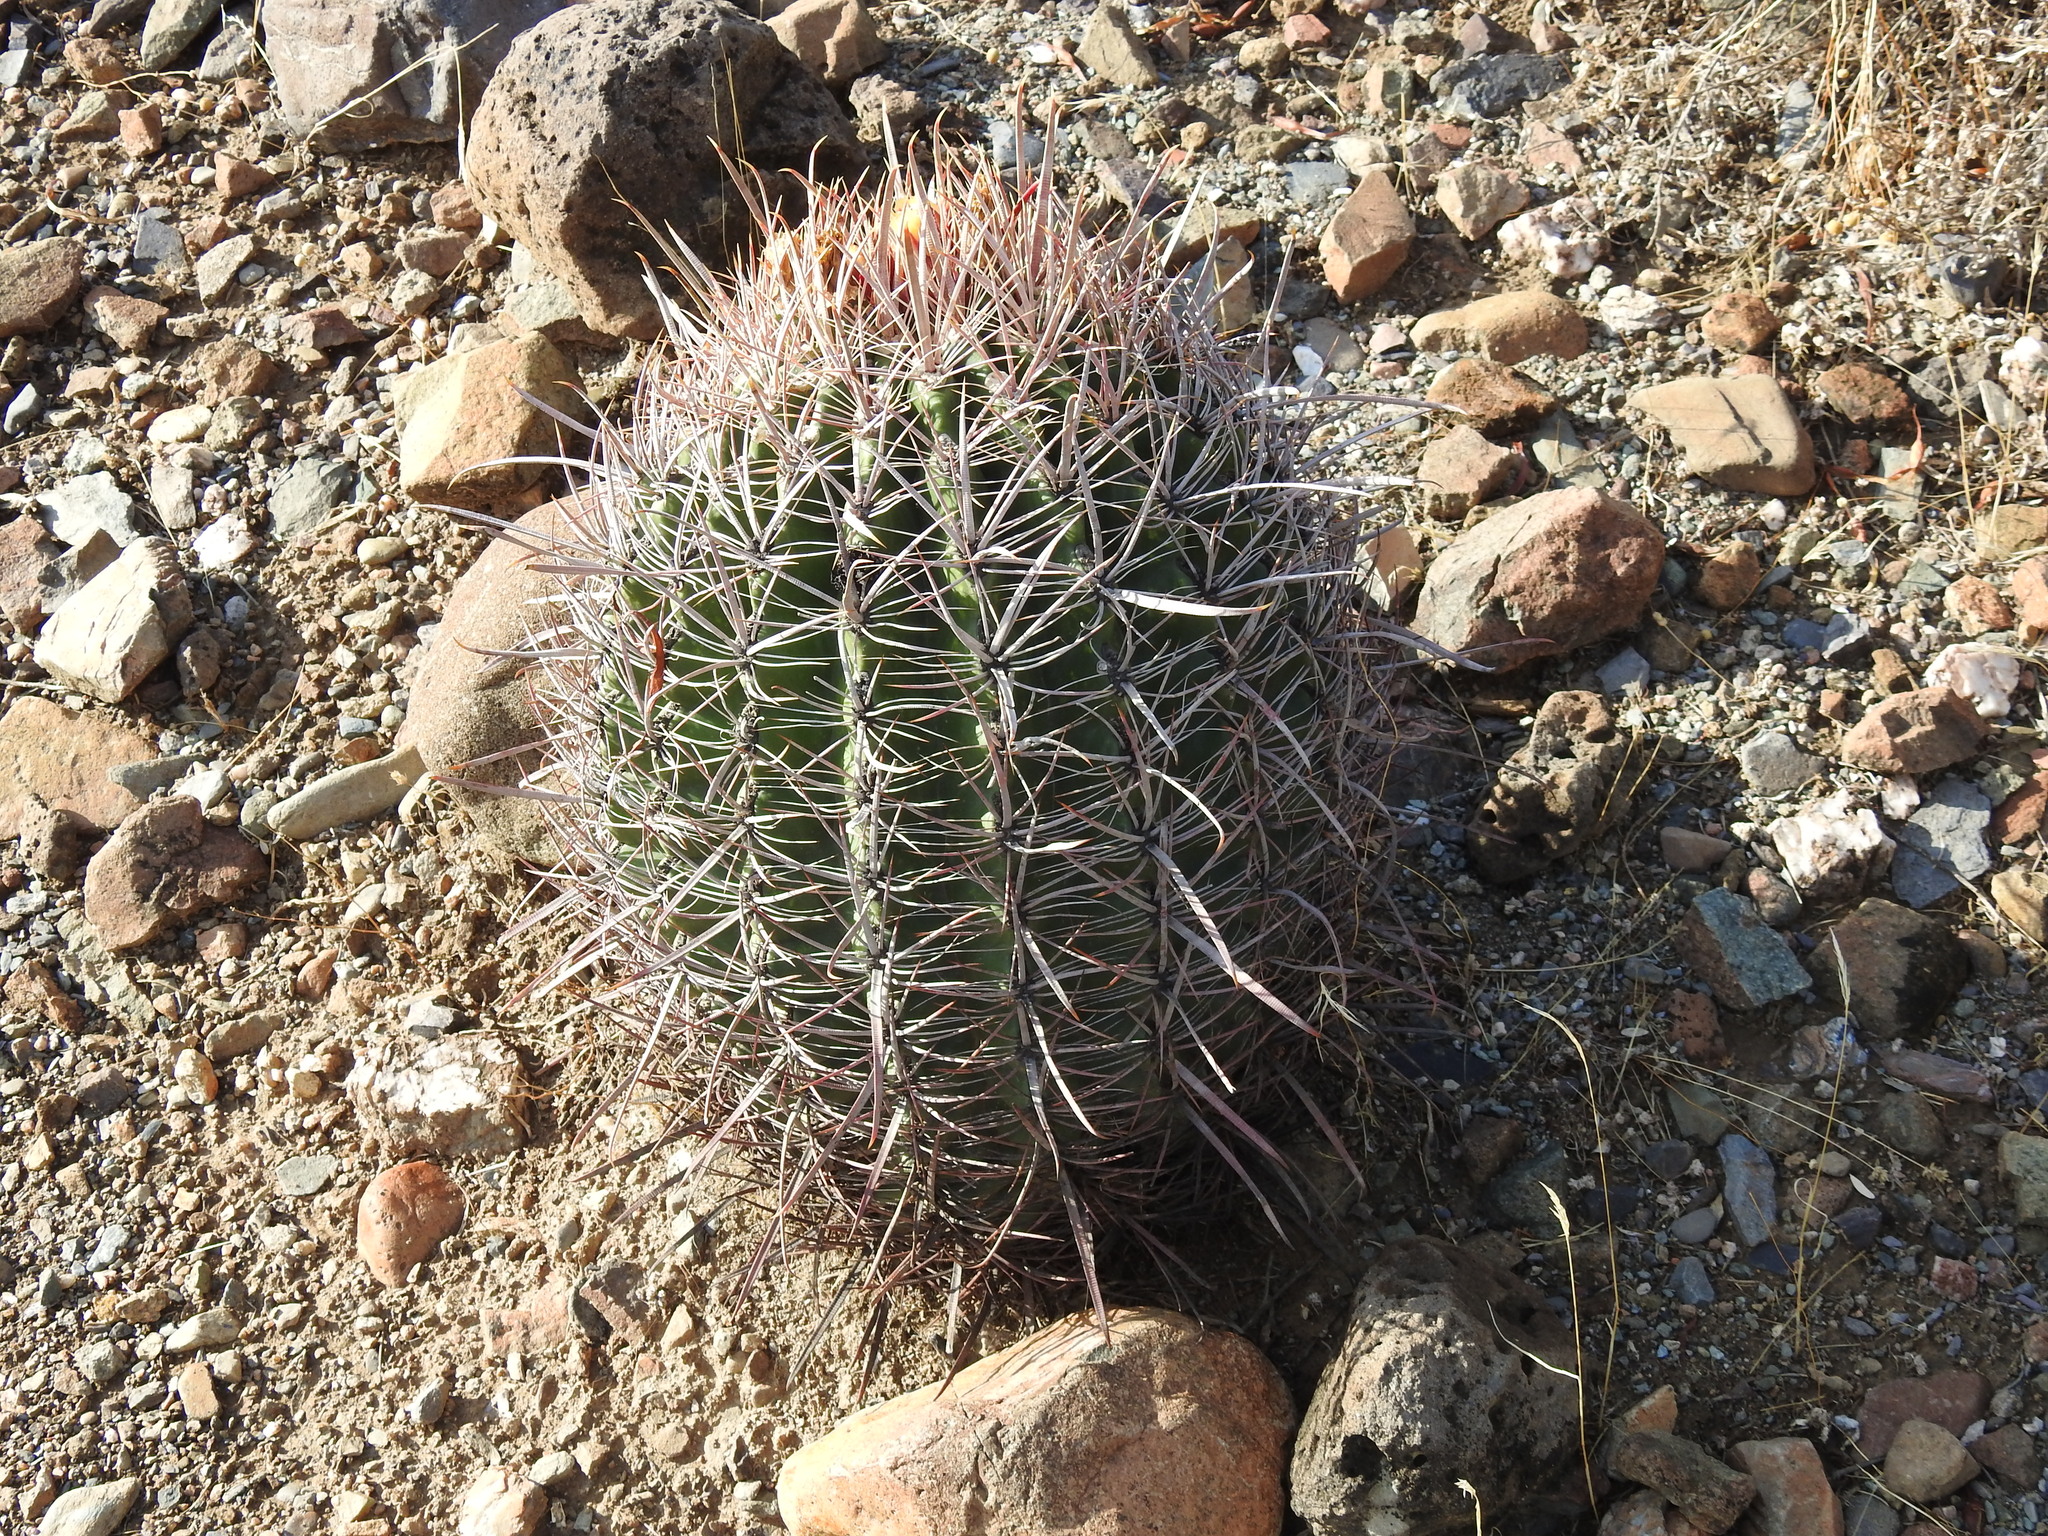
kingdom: Plantae
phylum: Tracheophyta
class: Magnoliopsida
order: Caryophyllales
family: Cactaceae
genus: Ferocactus
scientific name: Ferocactus cylindraceus
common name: California barrel cactus
